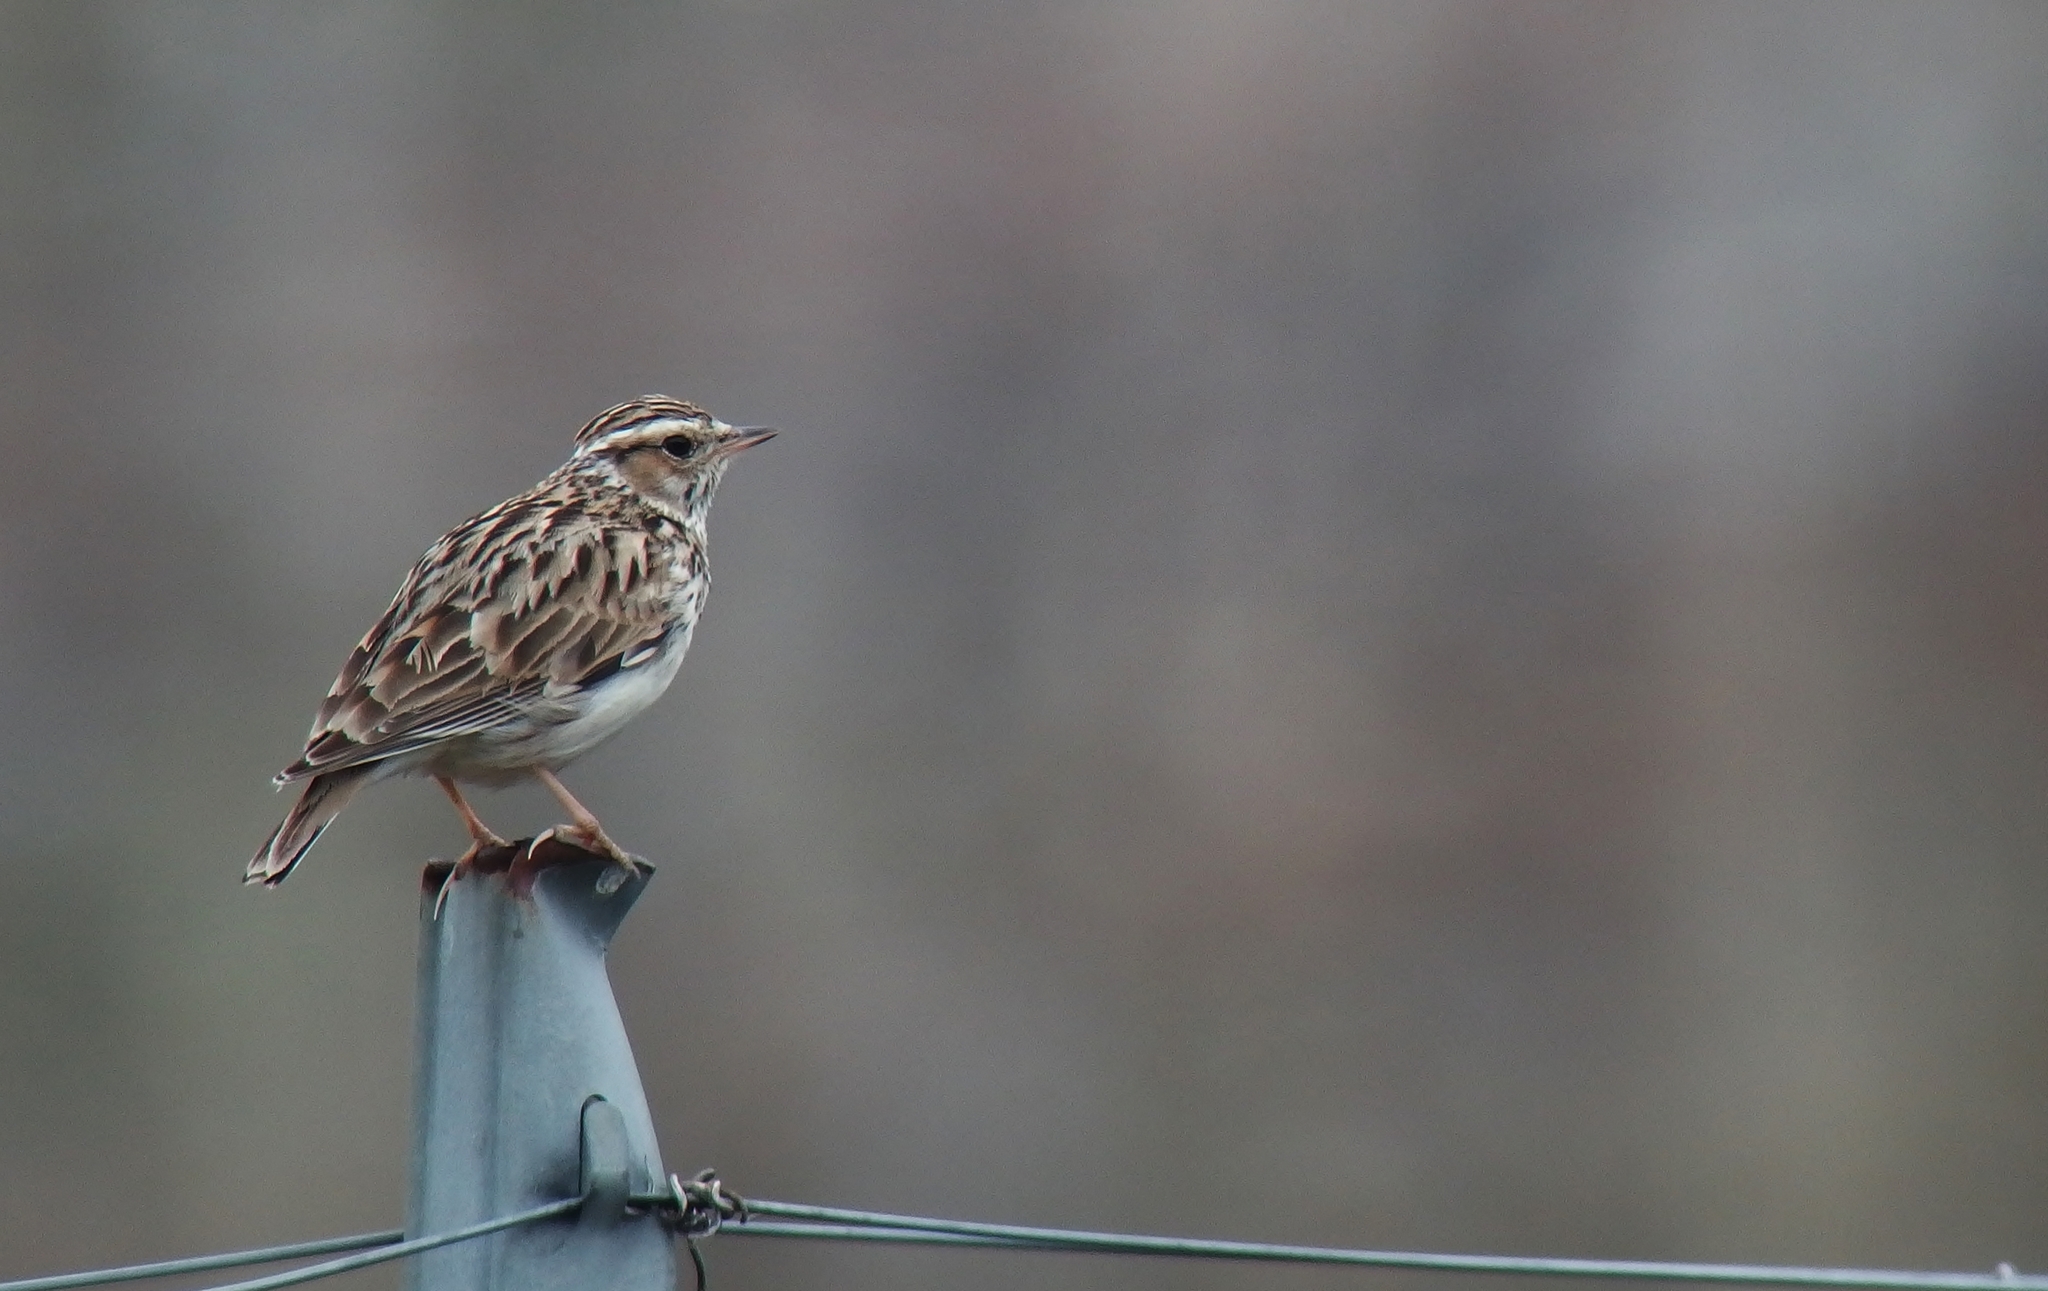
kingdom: Animalia
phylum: Chordata
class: Aves
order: Passeriformes
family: Alaudidae
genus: Lullula
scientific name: Lullula arborea
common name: Woodlark
